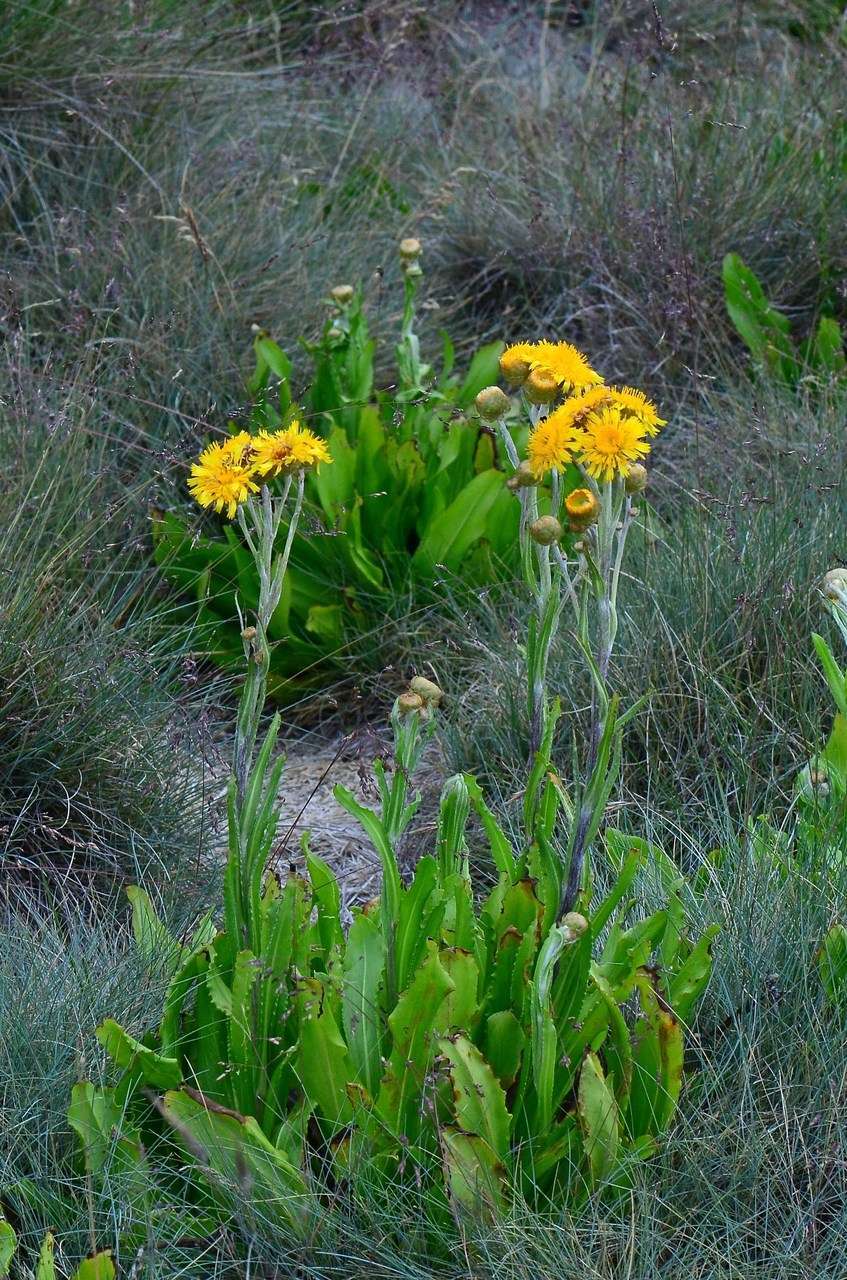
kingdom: Plantae
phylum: Tracheophyta
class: Magnoliopsida
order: Asterales
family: Asteraceae
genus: Podolepis
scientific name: Podolepis robusta
